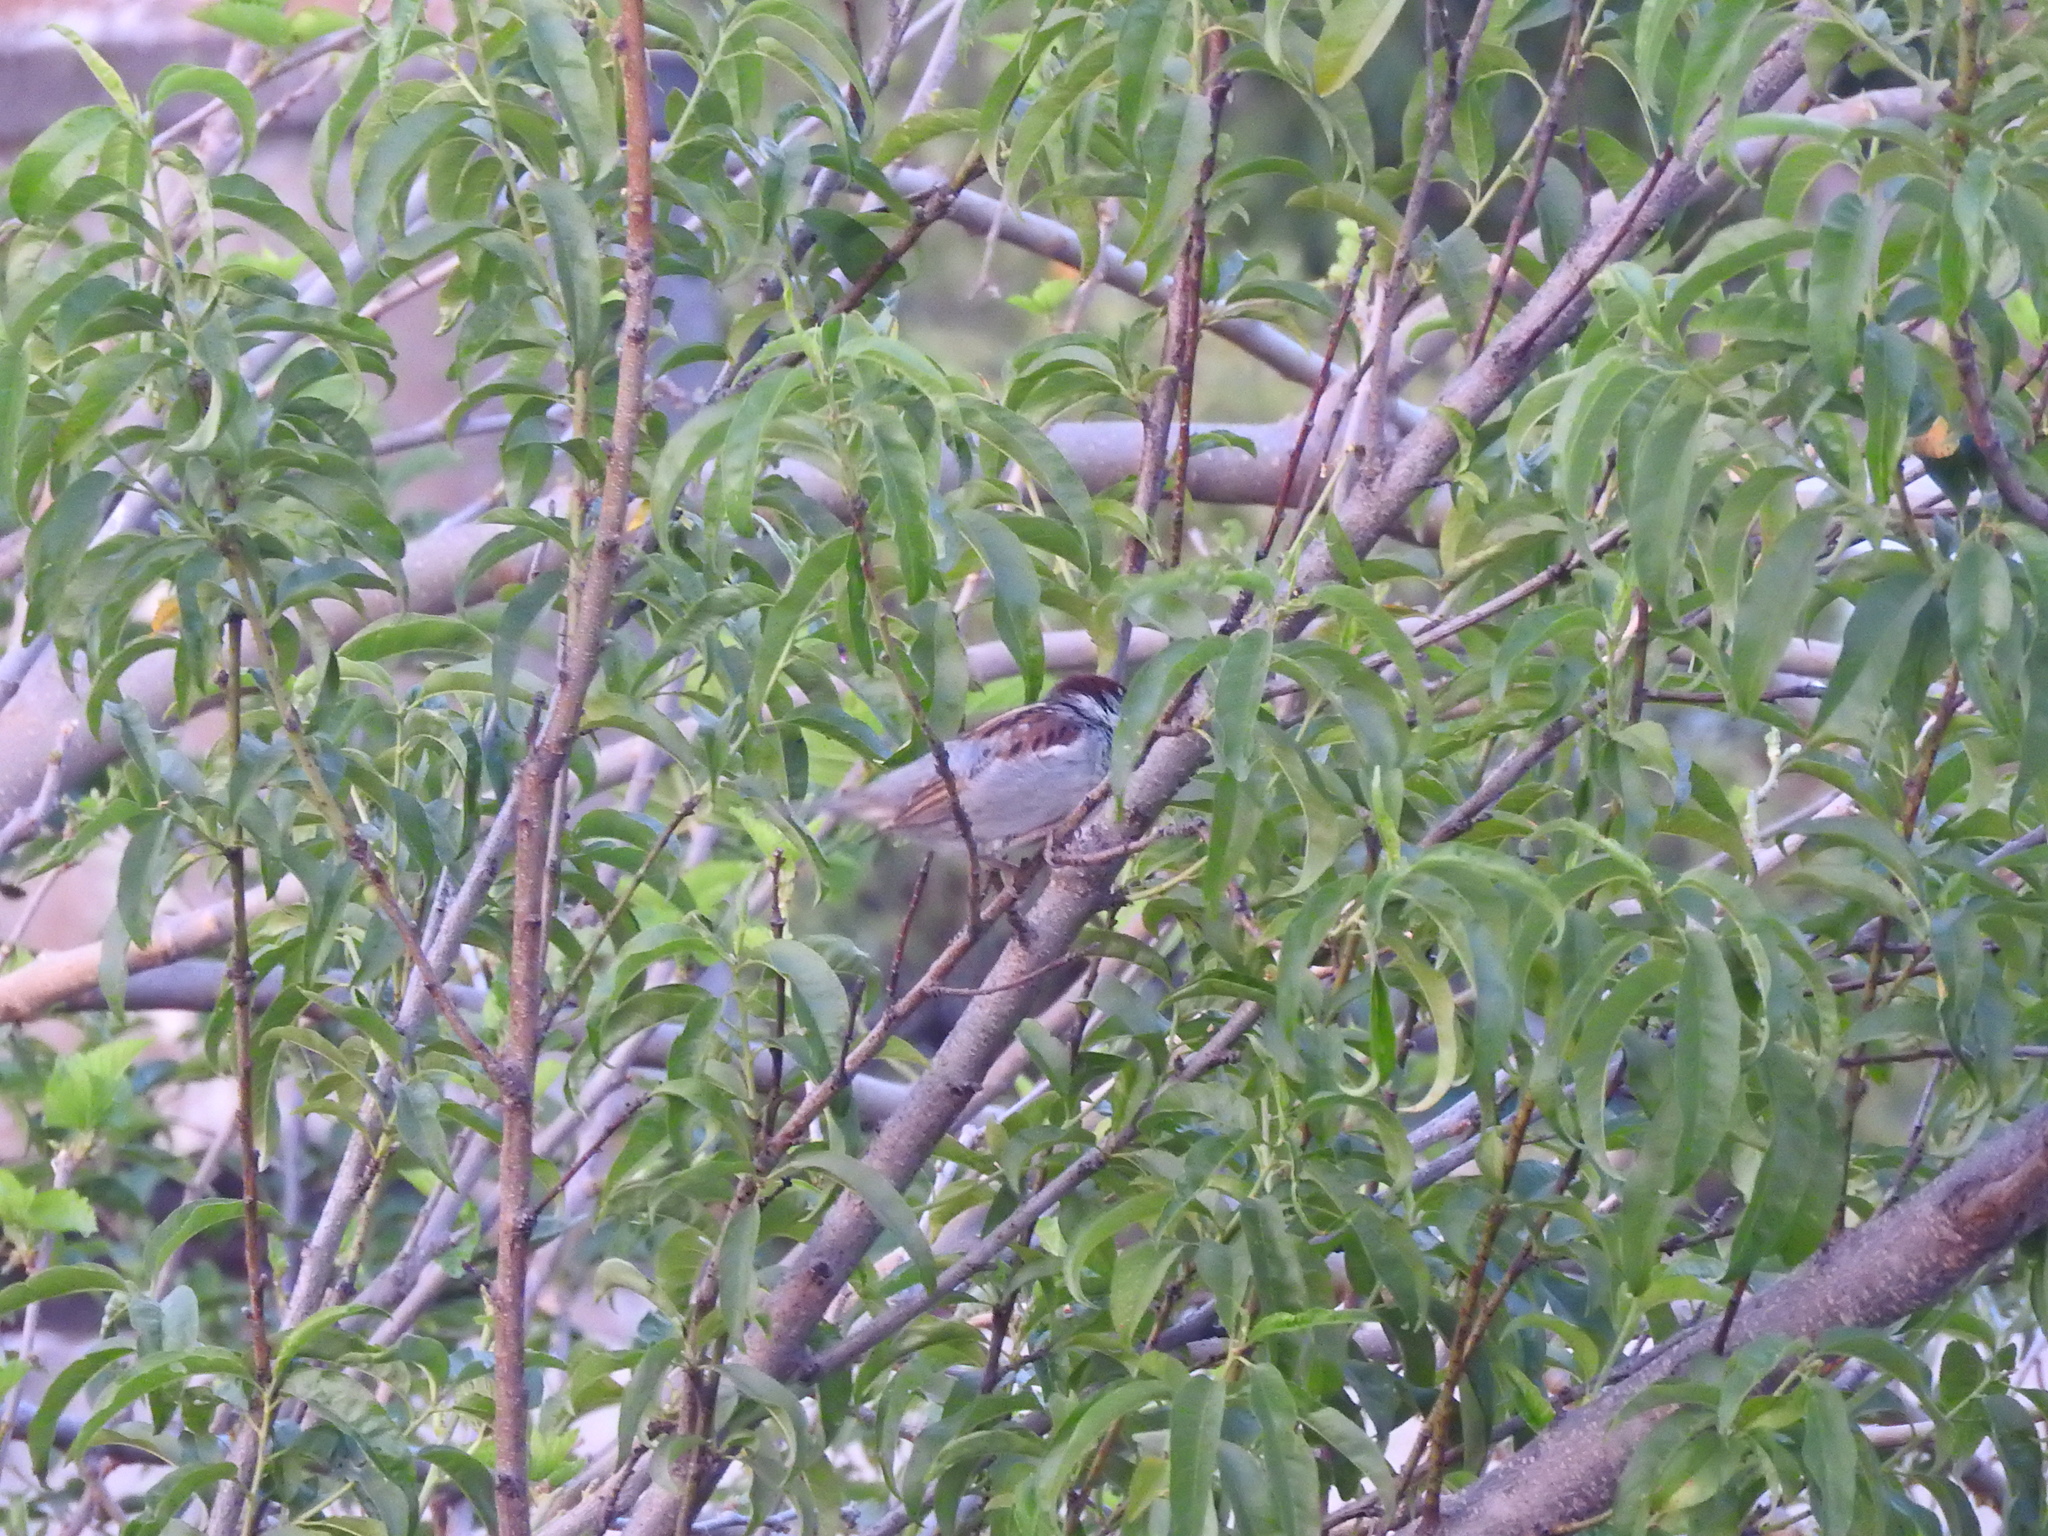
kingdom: Animalia
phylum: Chordata
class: Aves
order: Passeriformes
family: Passeridae
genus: Passer
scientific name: Passer domesticus
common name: House sparrow
